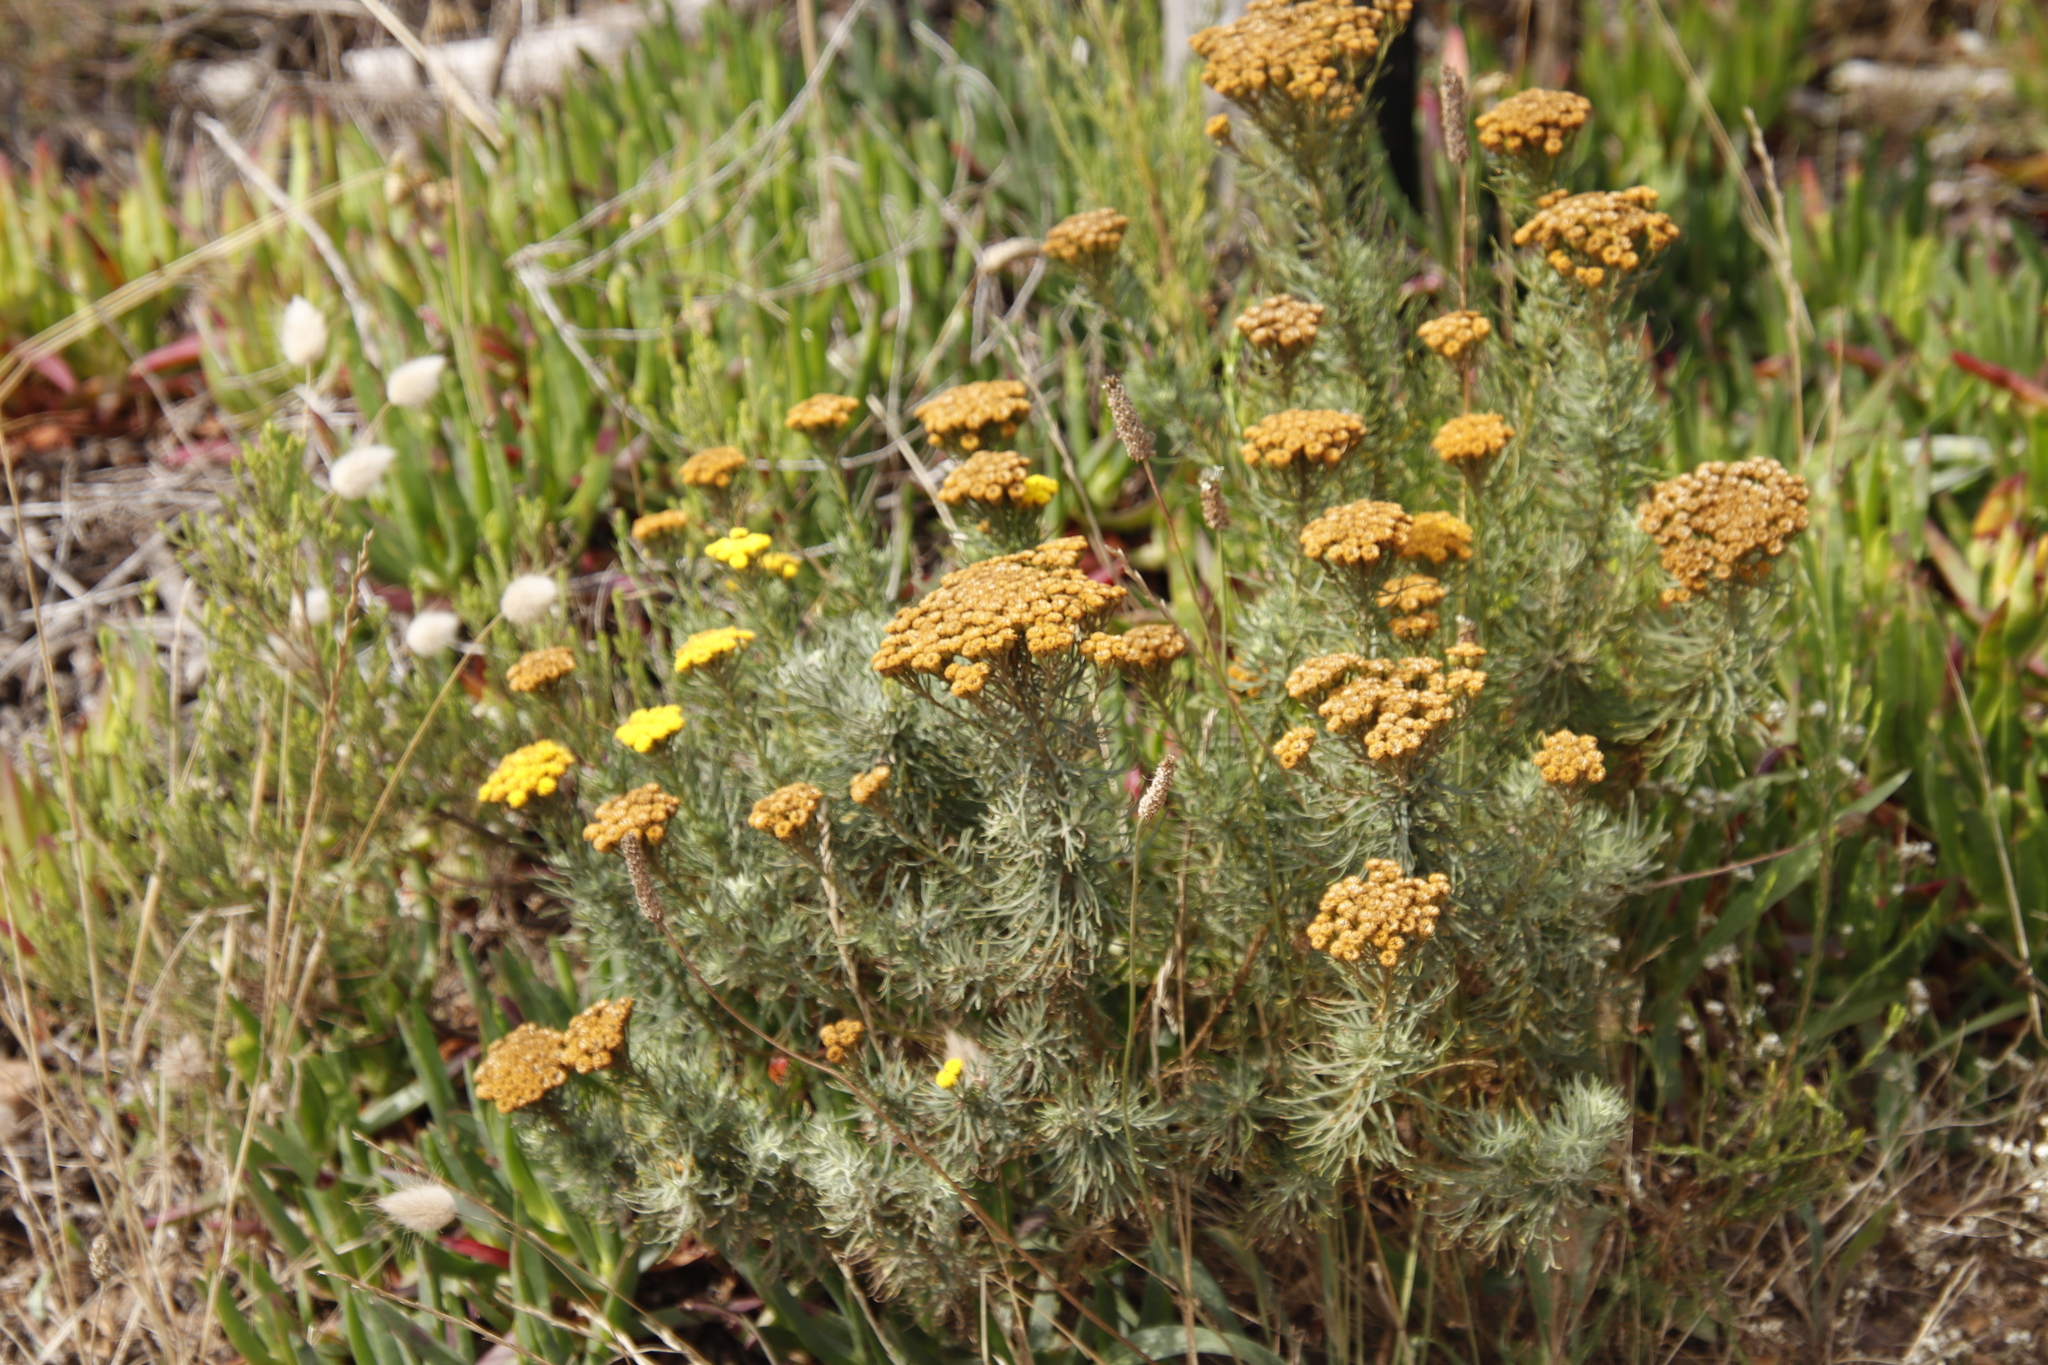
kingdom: Plantae
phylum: Tracheophyta
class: Magnoliopsida
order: Asterales
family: Asteraceae
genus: Athanasia
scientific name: Athanasia crithmifolia
